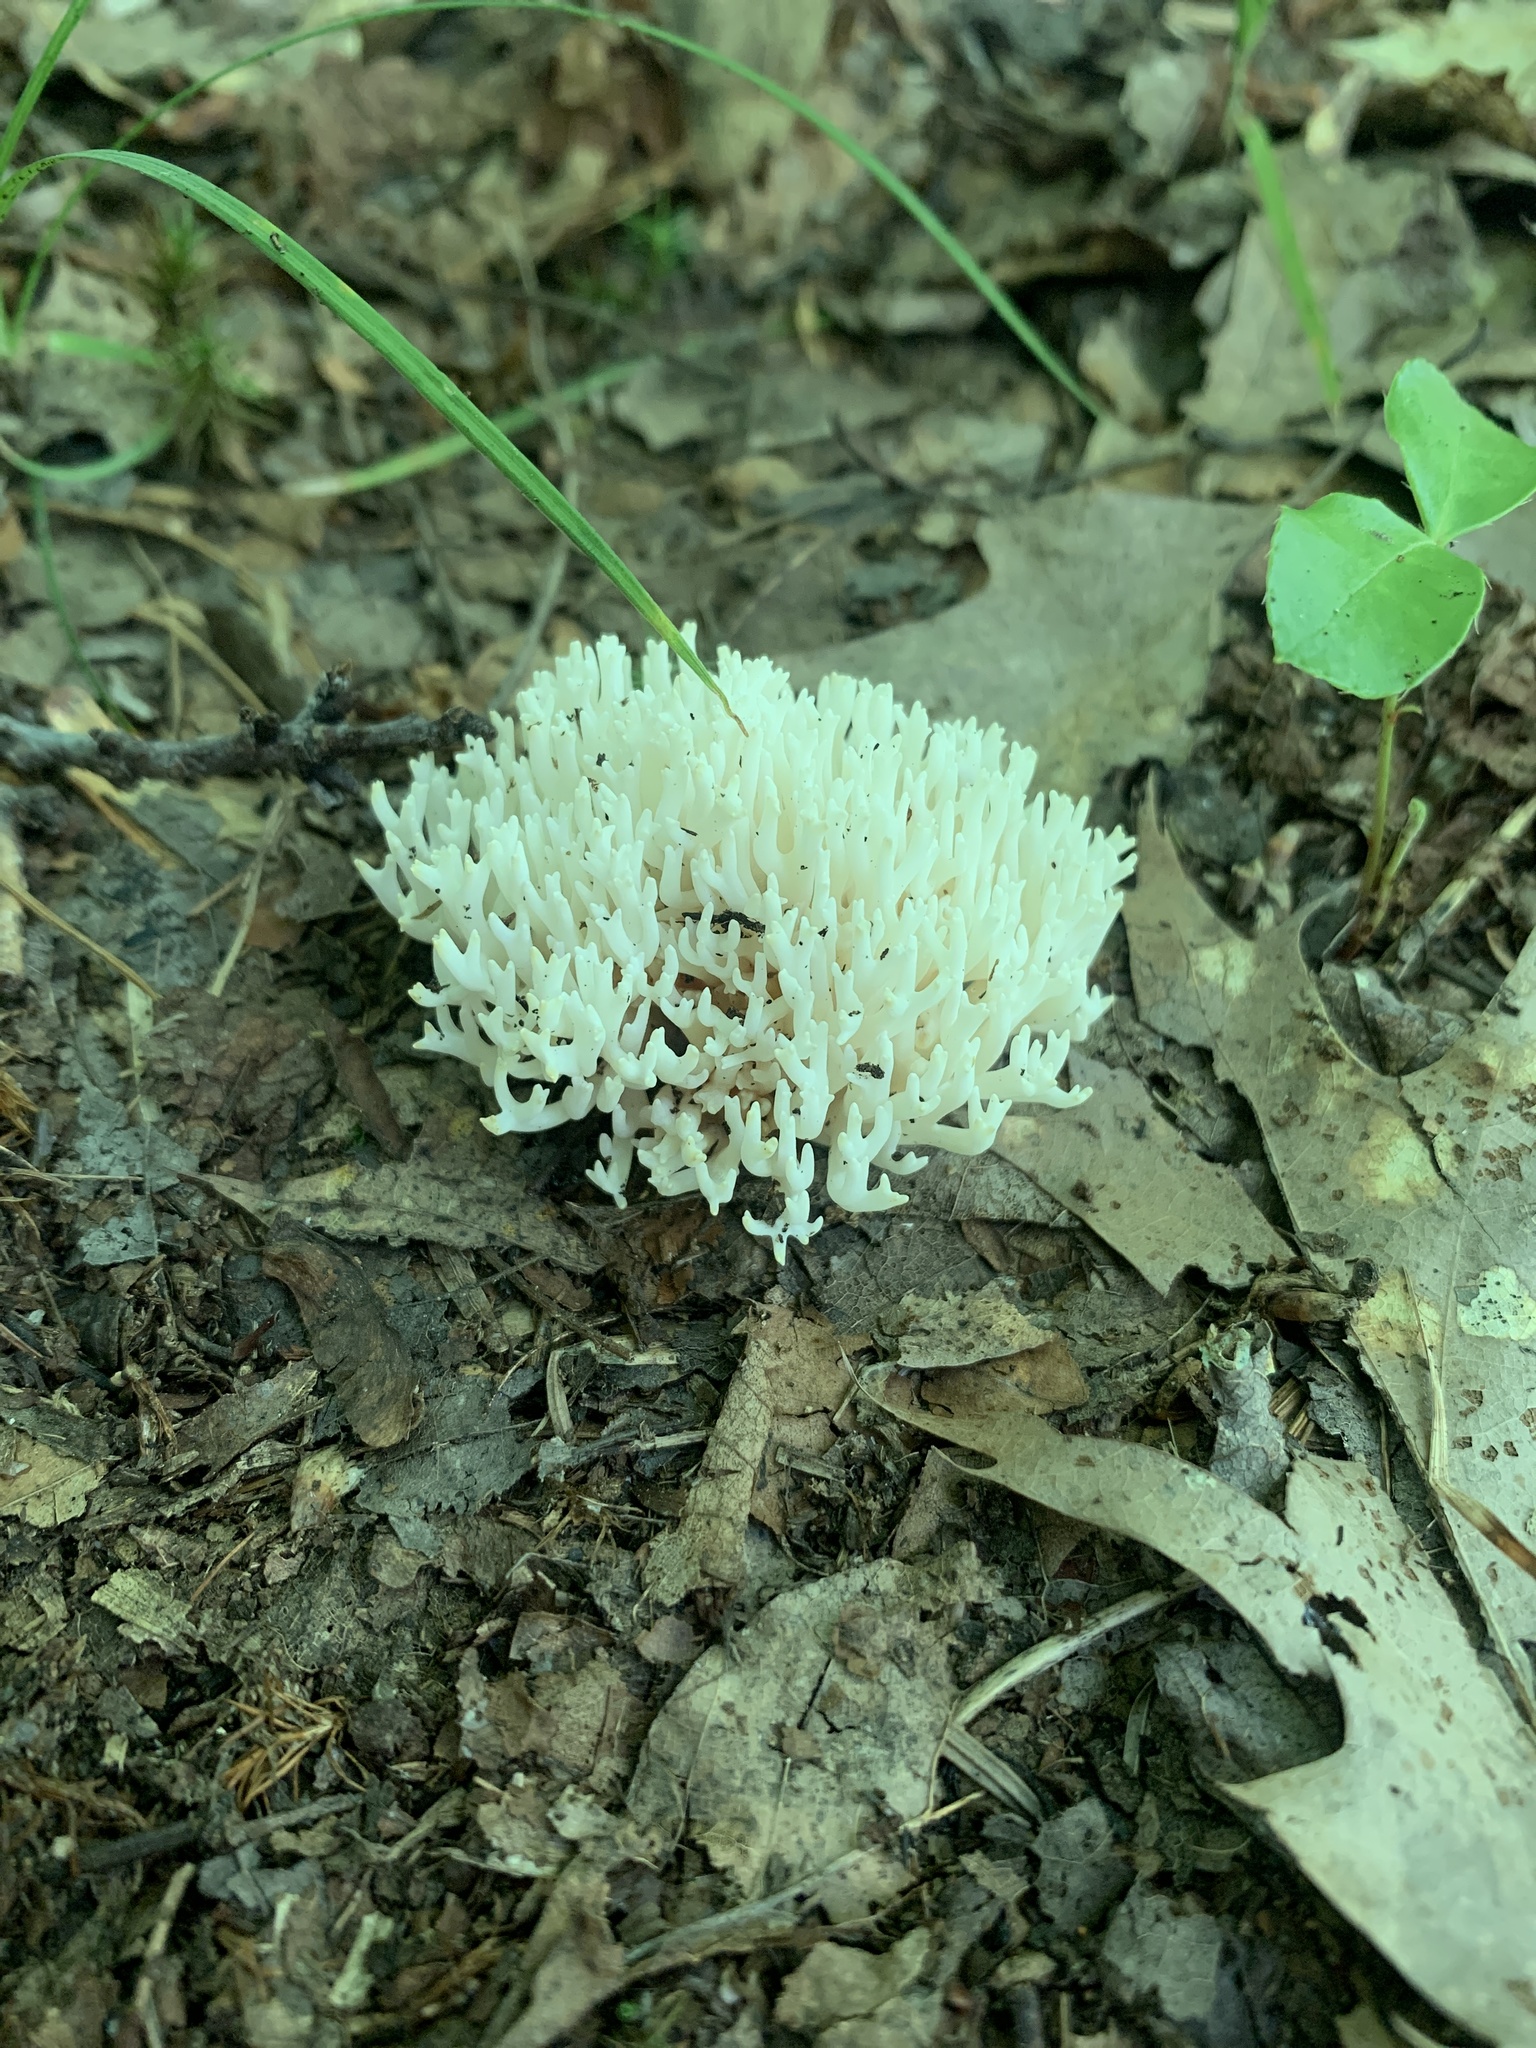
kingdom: Fungi
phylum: Basidiomycota
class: Agaricomycetes
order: Agaricales
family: Clavariaceae
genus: Ramariopsis
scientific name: Ramariopsis kunzei
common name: Ivory coral
